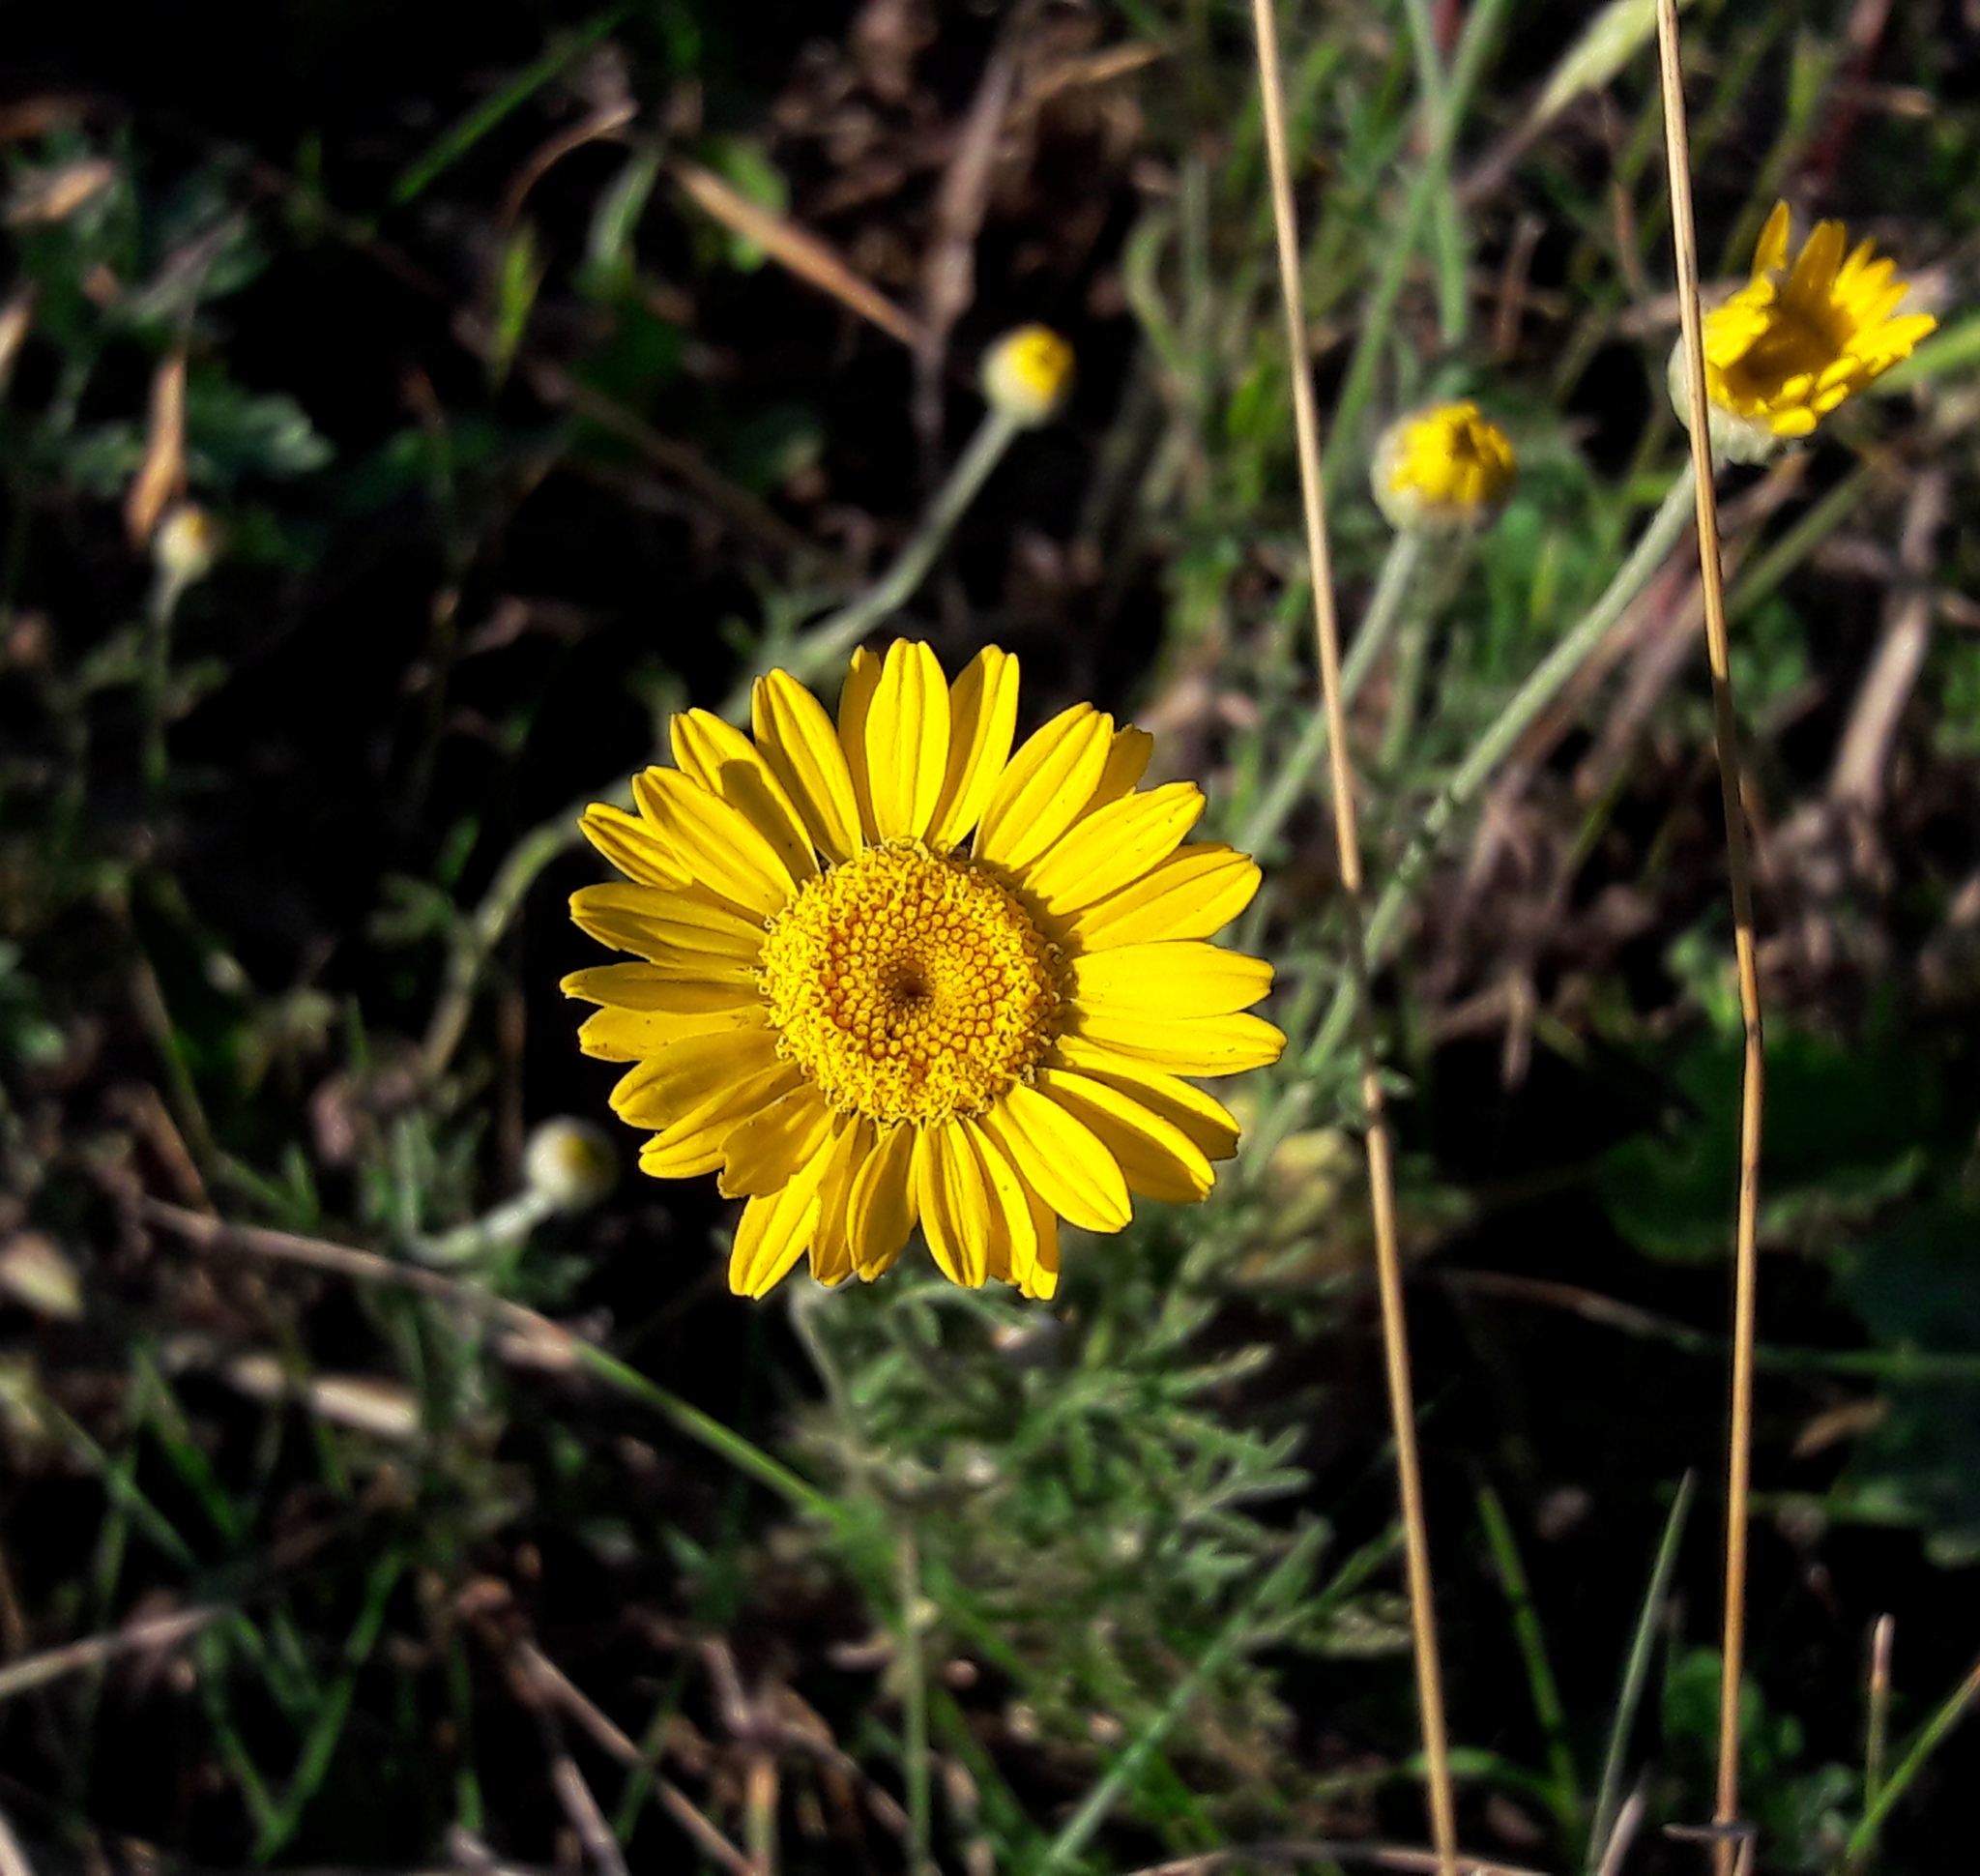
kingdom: Plantae
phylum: Tracheophyta
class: Magnoliopsida
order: Asterales
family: Asteraceae
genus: Cota
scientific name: Cota tinctoria
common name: Golden chamomile
